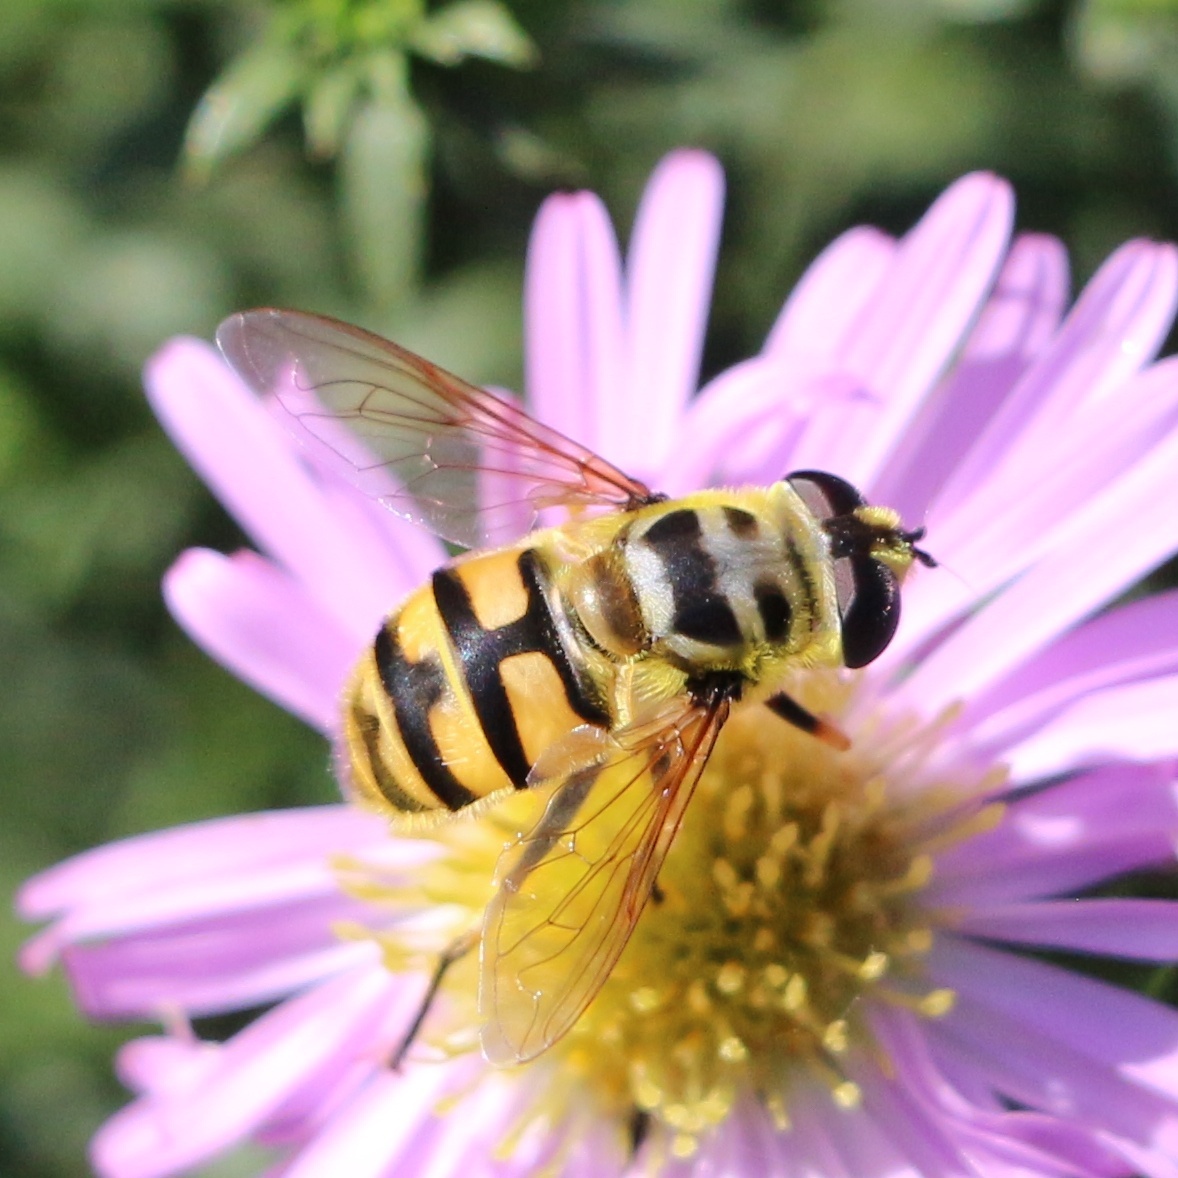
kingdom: Animalia
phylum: Arthropoda
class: Insecta
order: Diptera
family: Syrphidae
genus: Myathropa
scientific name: Myathropa florea
